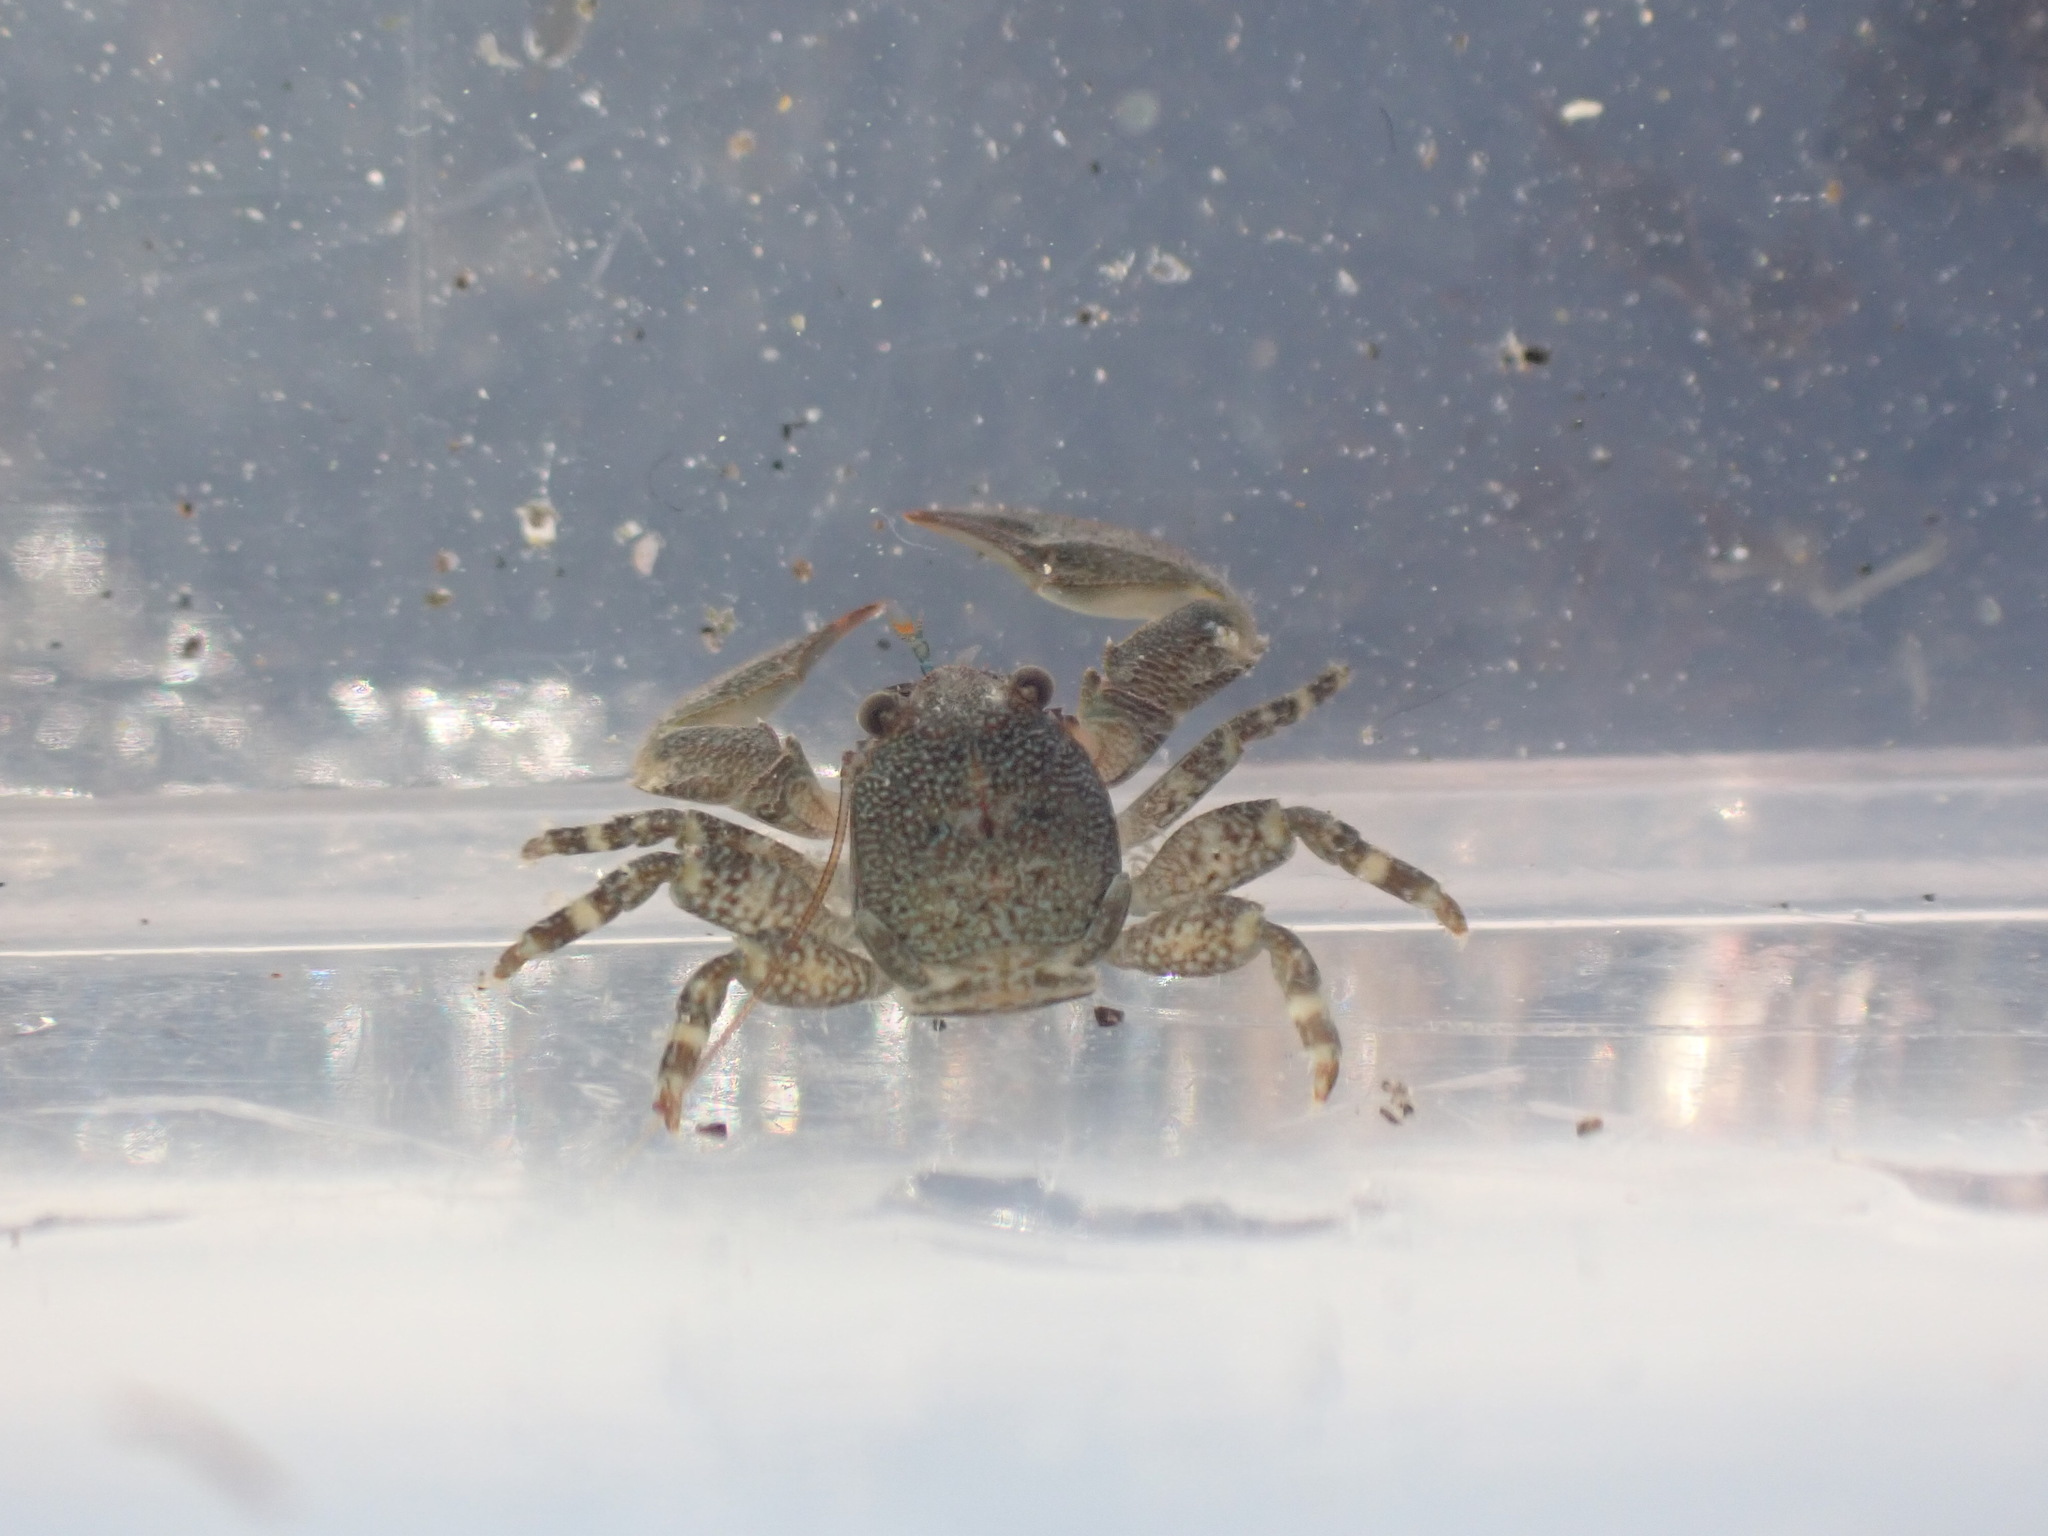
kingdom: Animalia
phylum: Arthropoda
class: Malacostraca
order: Decapoda
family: Porcellanidae
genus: Petrolisthes
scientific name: Petrolisthes elongatus
